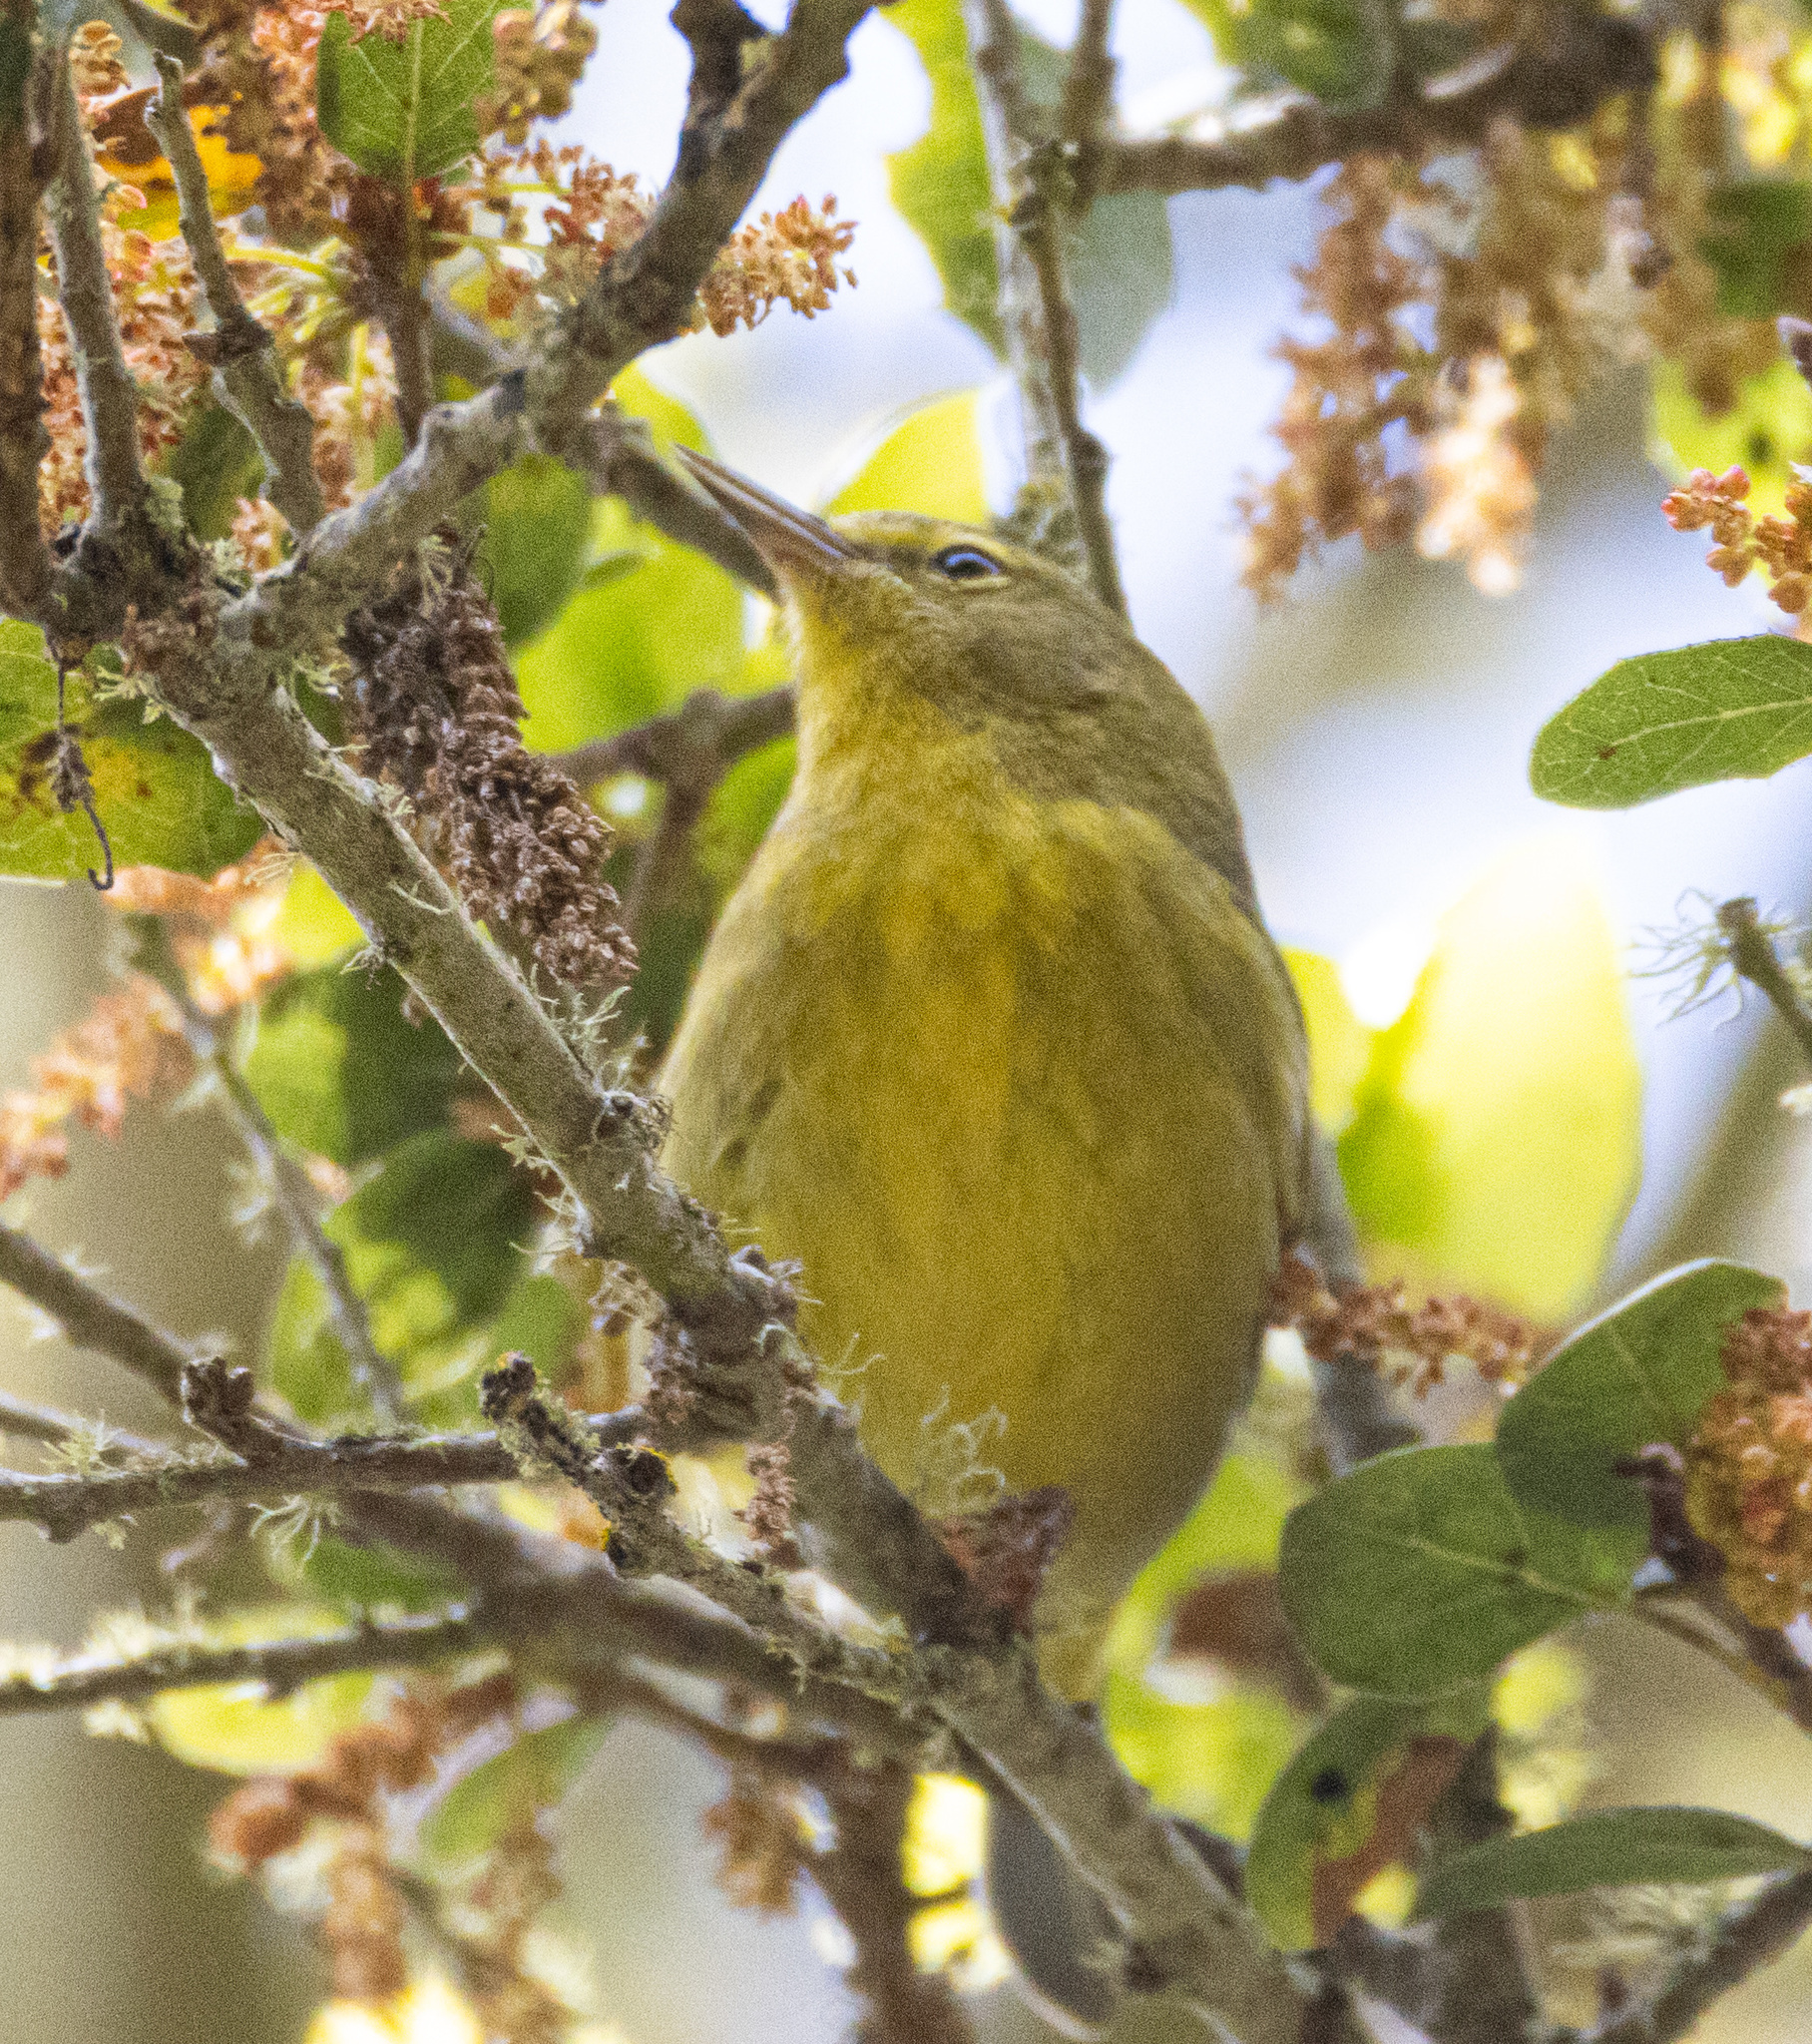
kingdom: Animalia
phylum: Chordata
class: Aves
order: Passeriformes
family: Parulidae
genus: Leiothlypis
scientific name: Leiothlypis celata
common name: Orange-crowned warbler
